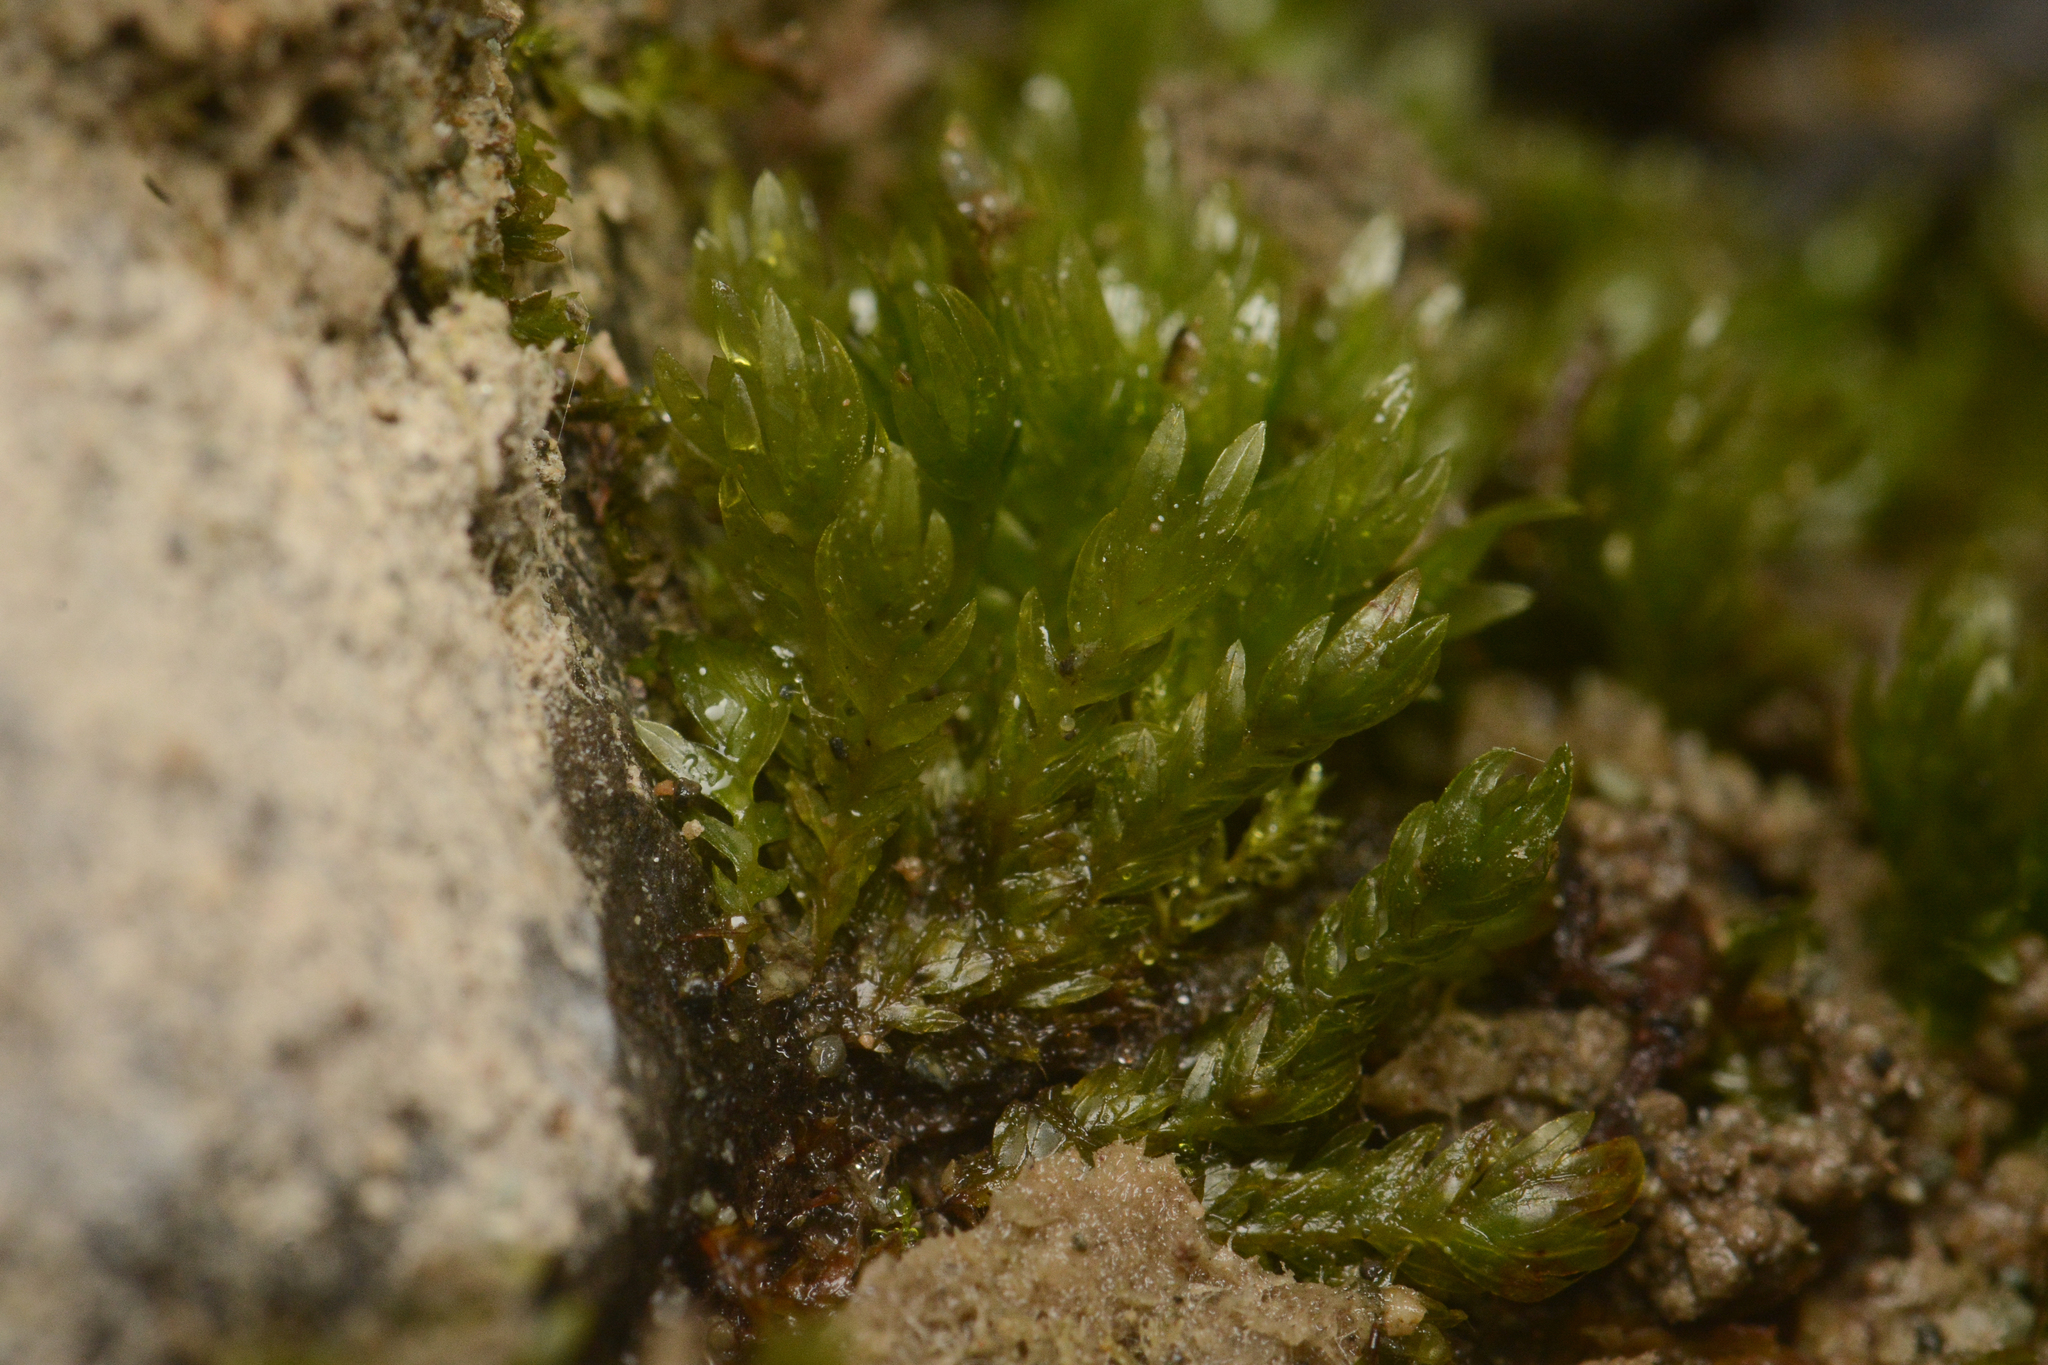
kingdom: Plantae
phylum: Bryophyta
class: Bryopsida
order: Dicranales
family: Fissidentaceae
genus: Fissidens
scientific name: Fissidens ventricosus
